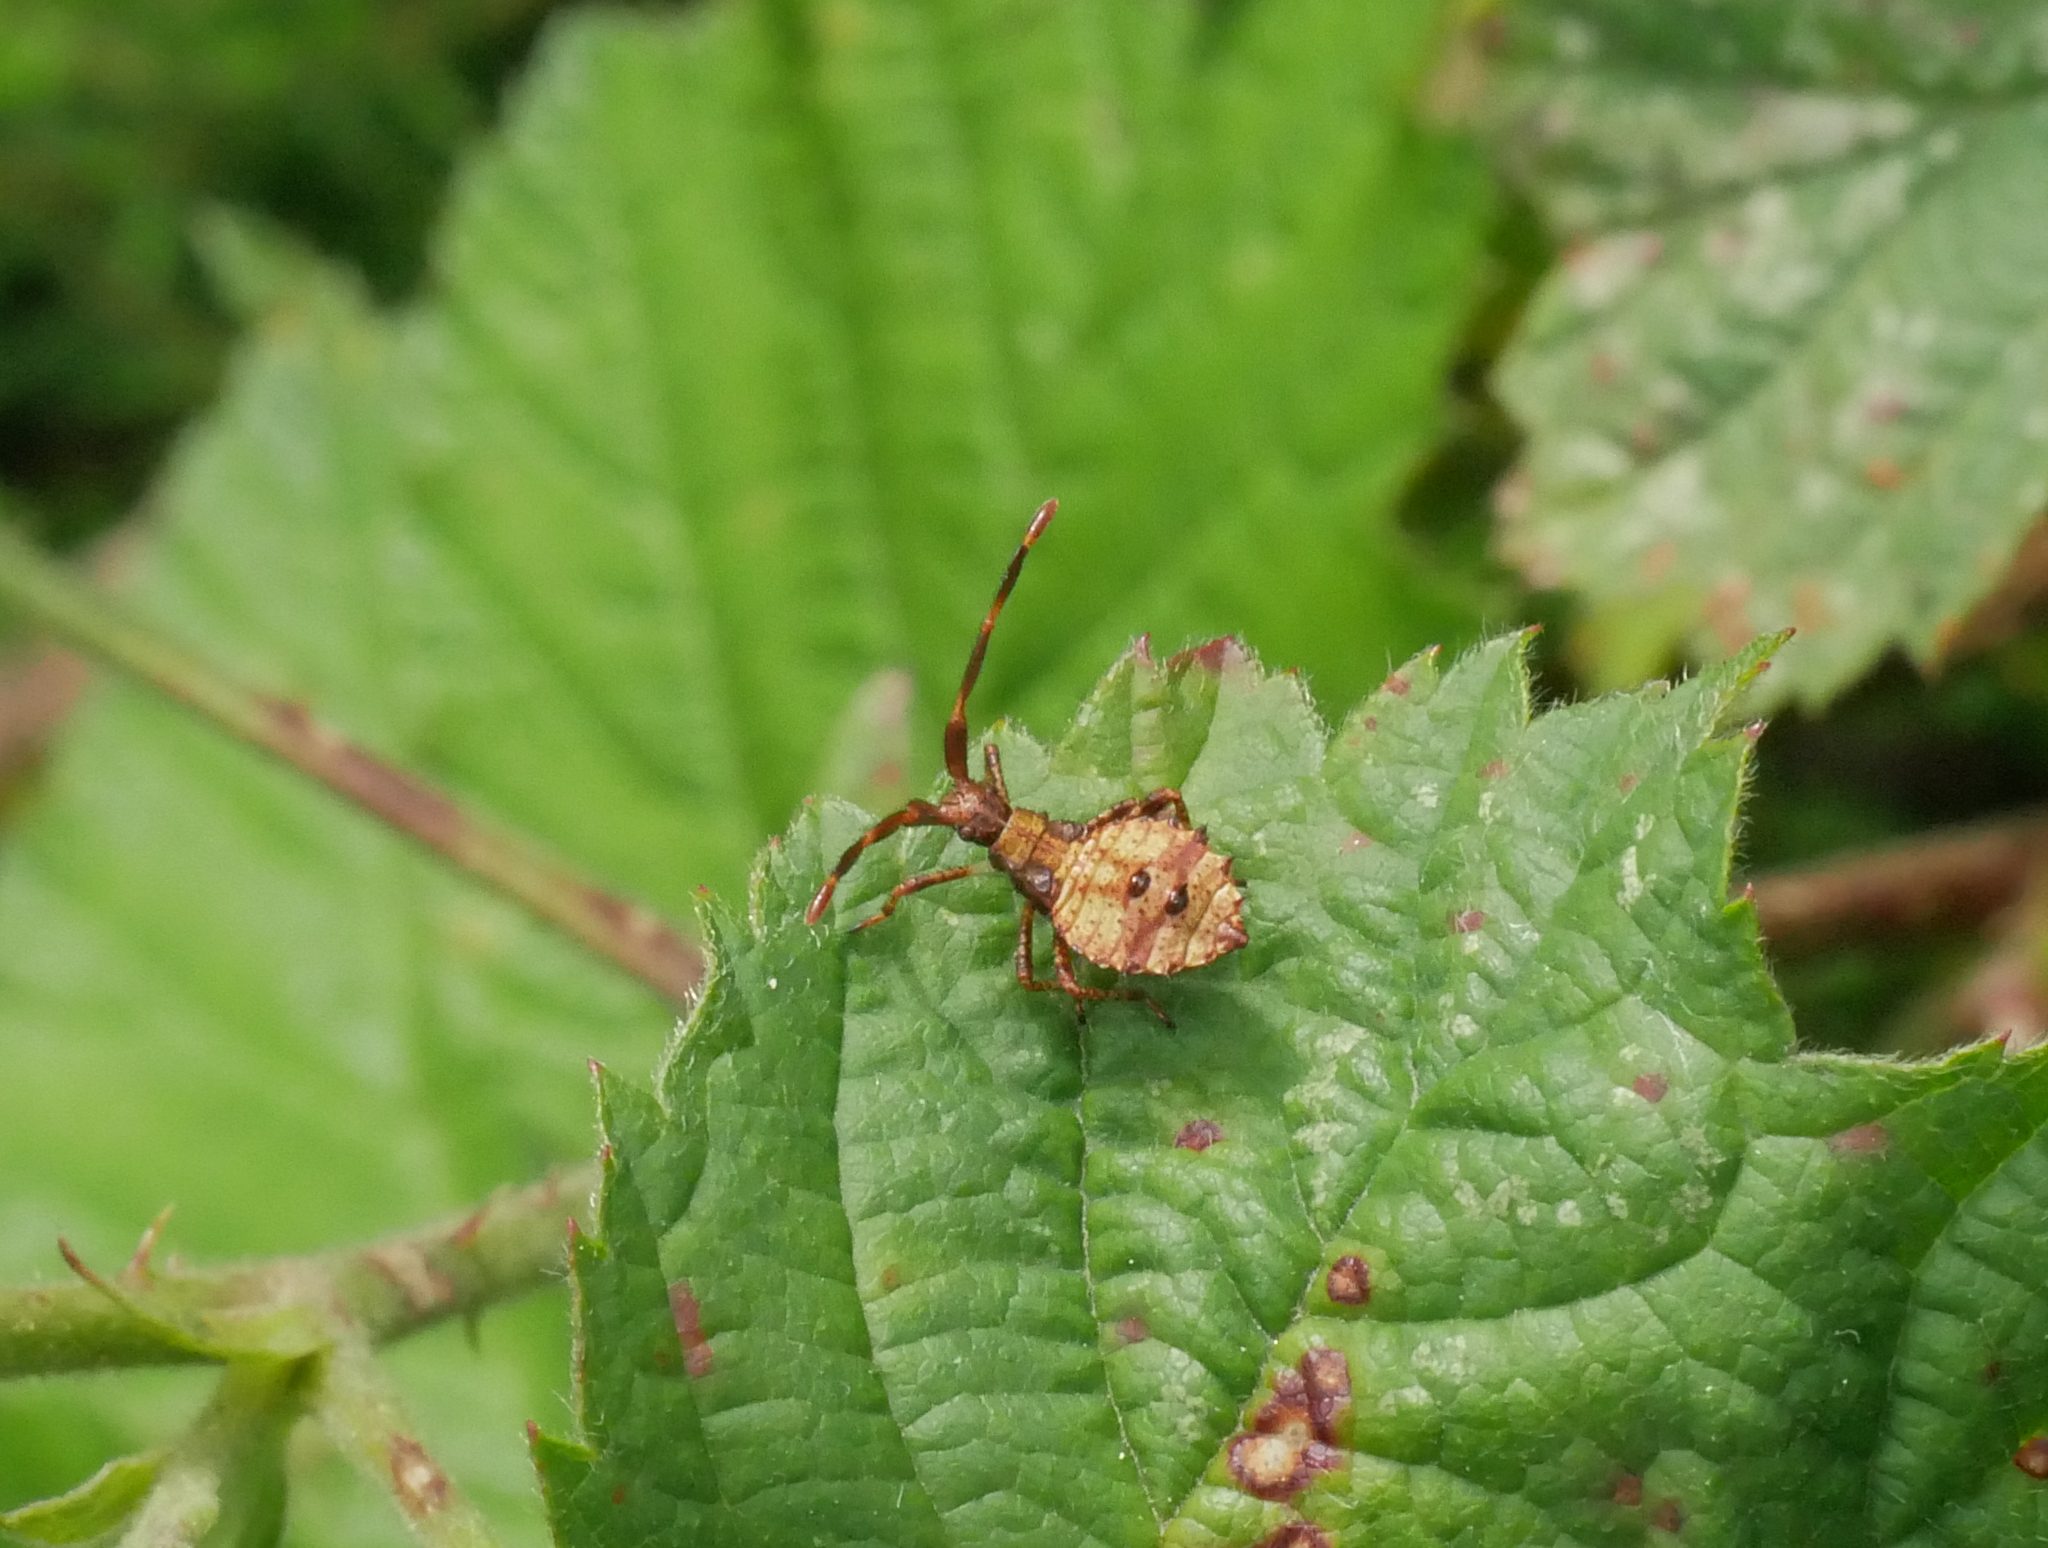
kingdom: Animalia
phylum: Arthropoda
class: Insecta
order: Hemiptera
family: Coreidae
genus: Coreus
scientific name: Coreus marginatus
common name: Dock bug
